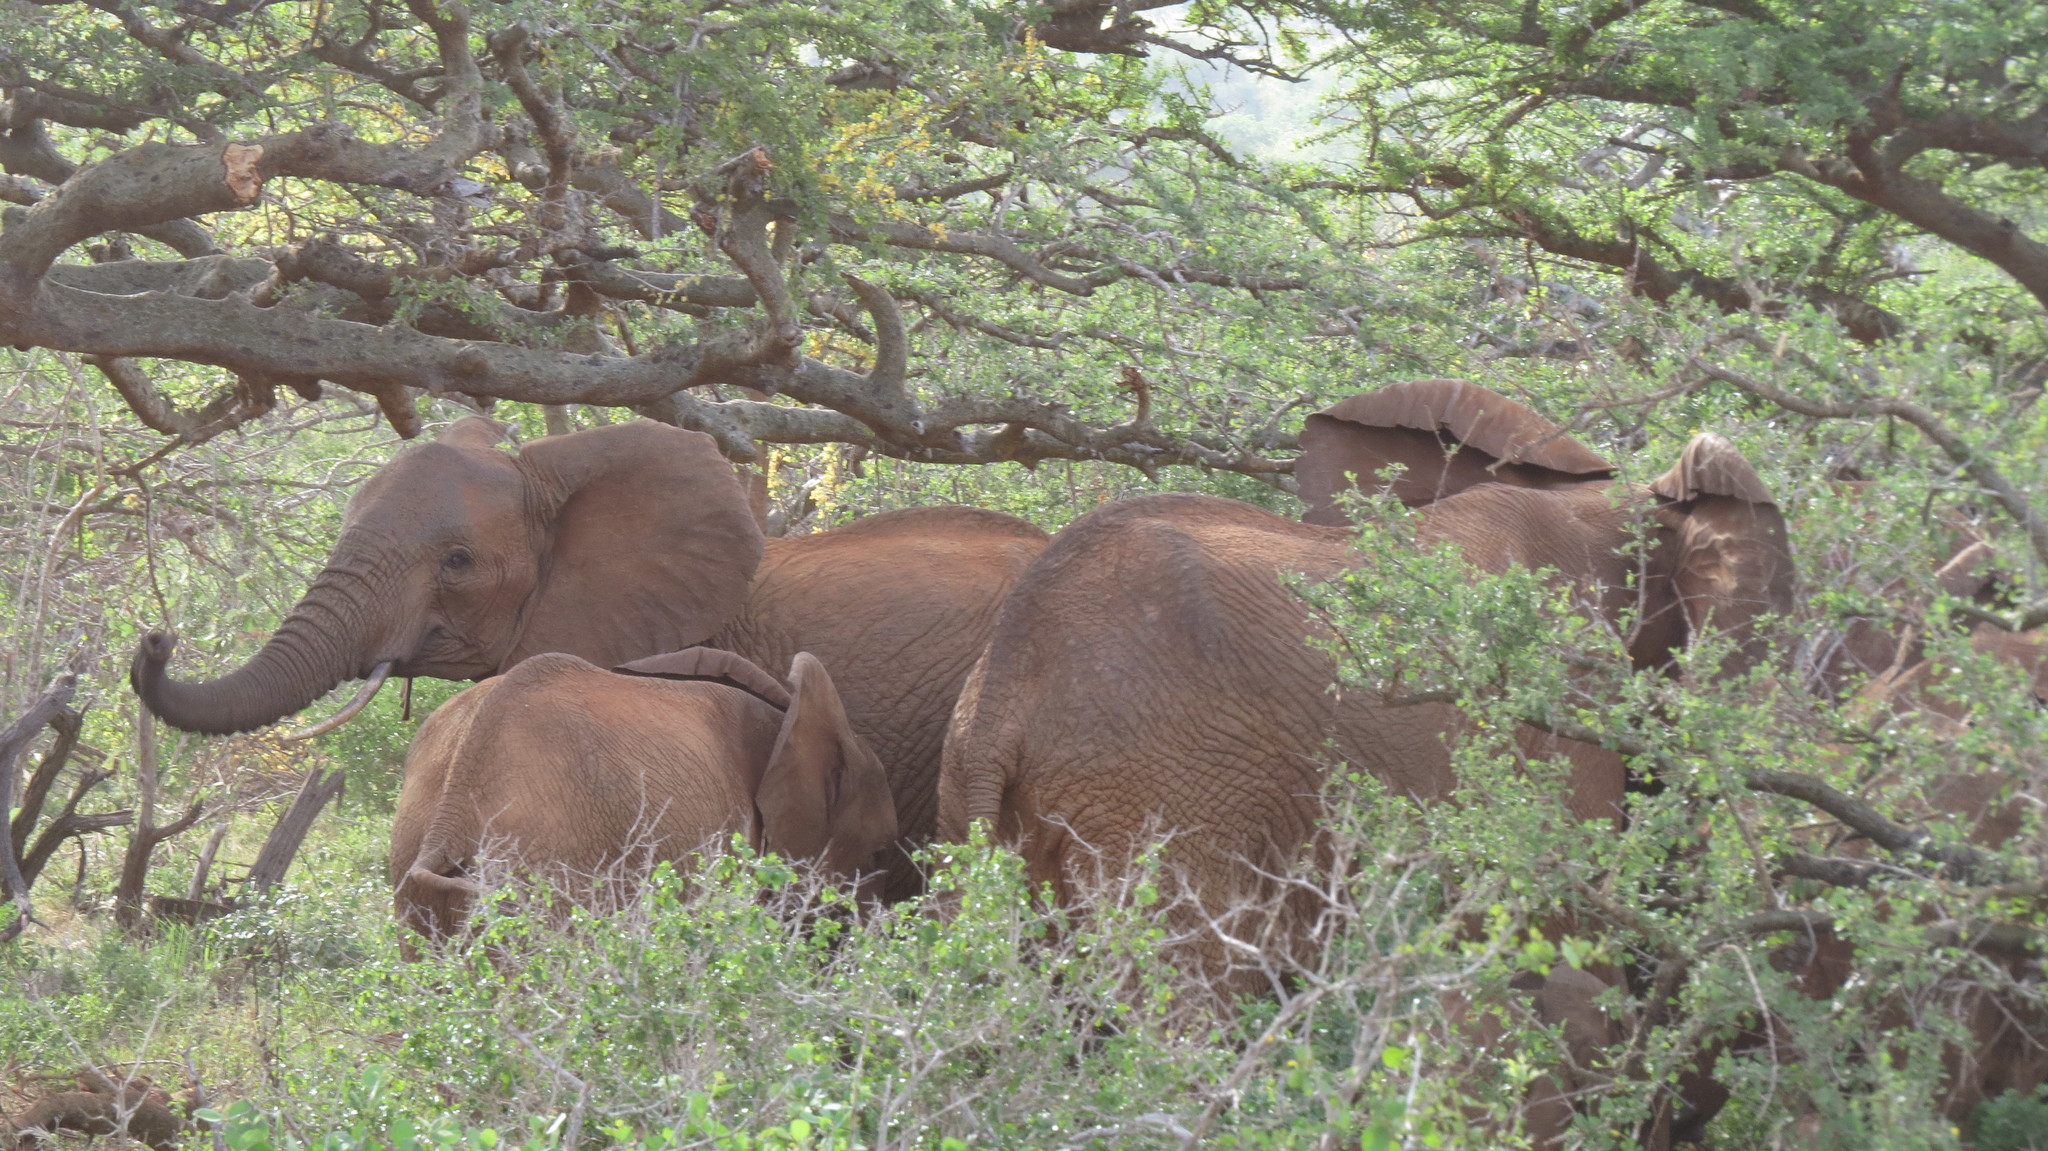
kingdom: Animalia
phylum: Chordata
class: Mammalia
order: Proboscidea
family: Elephantidae
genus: Loxodonta
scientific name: Loxodonta africana
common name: African elephant
